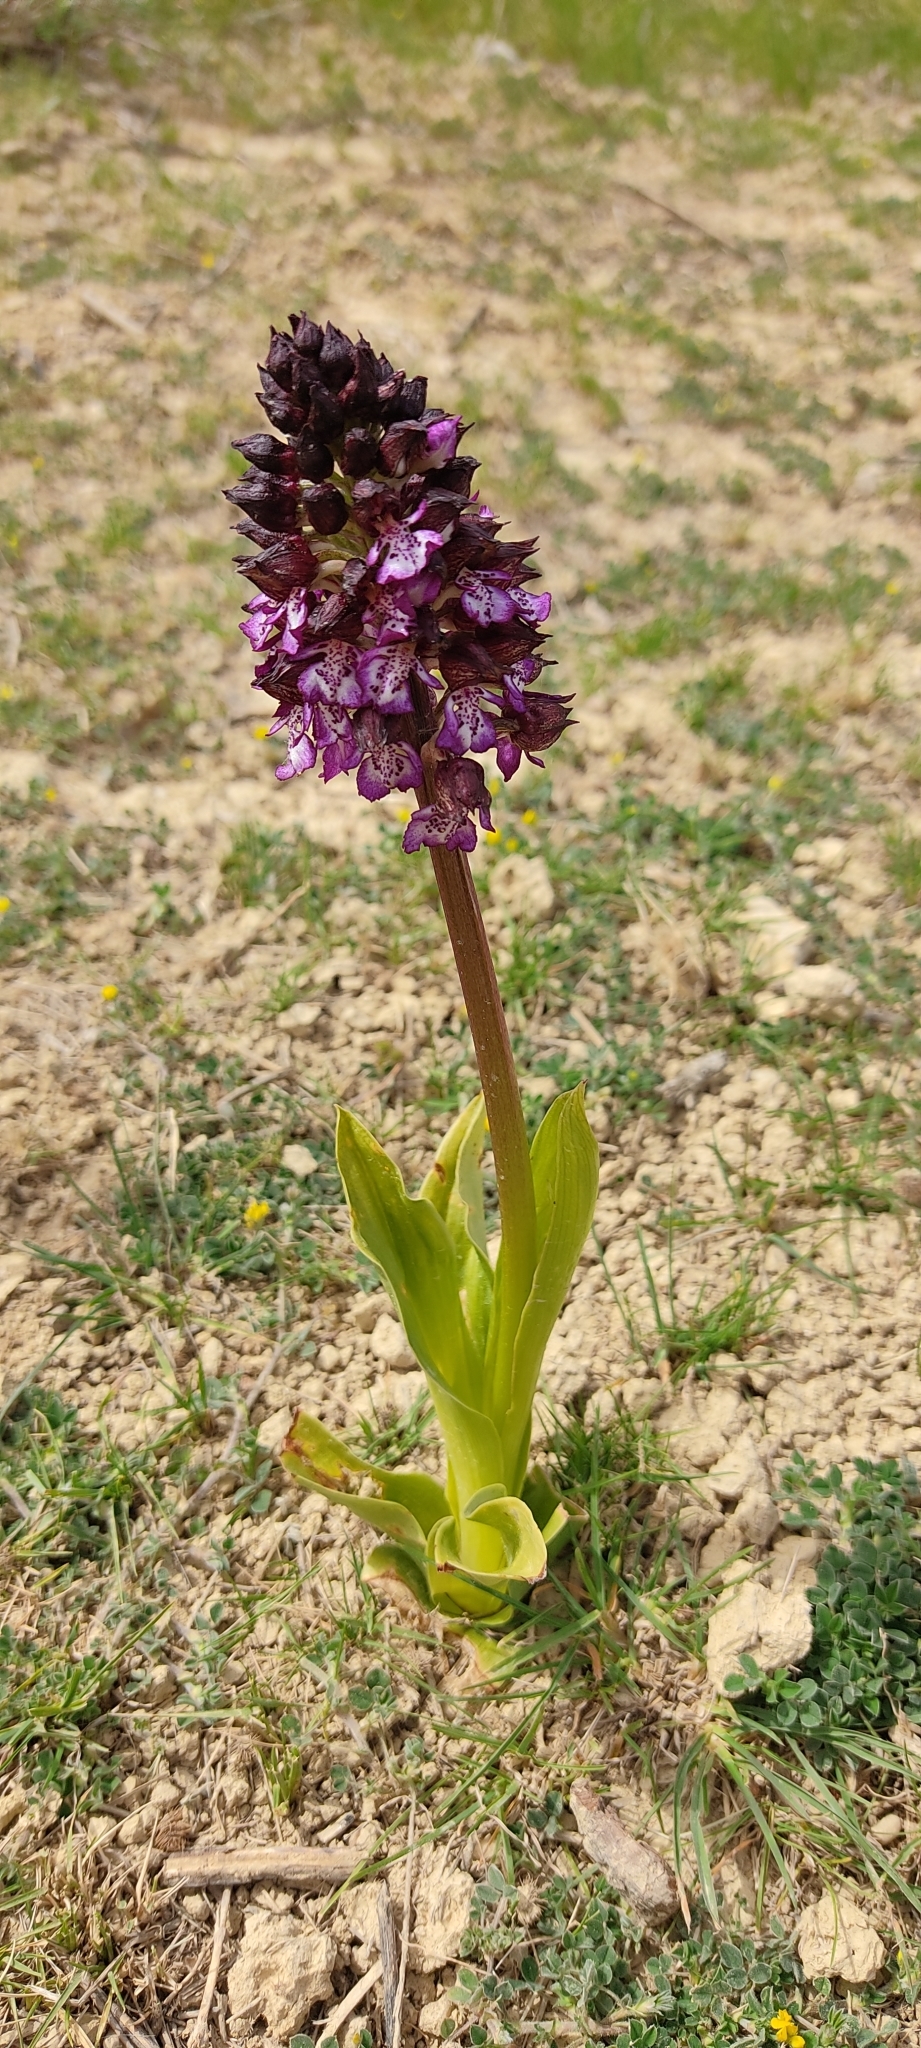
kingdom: Plantae
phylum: Tracheophyta
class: Liliopsida
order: Asparagales
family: Orchidaceae
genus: Orchis
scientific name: Orchis purpurea
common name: Lady orchid
